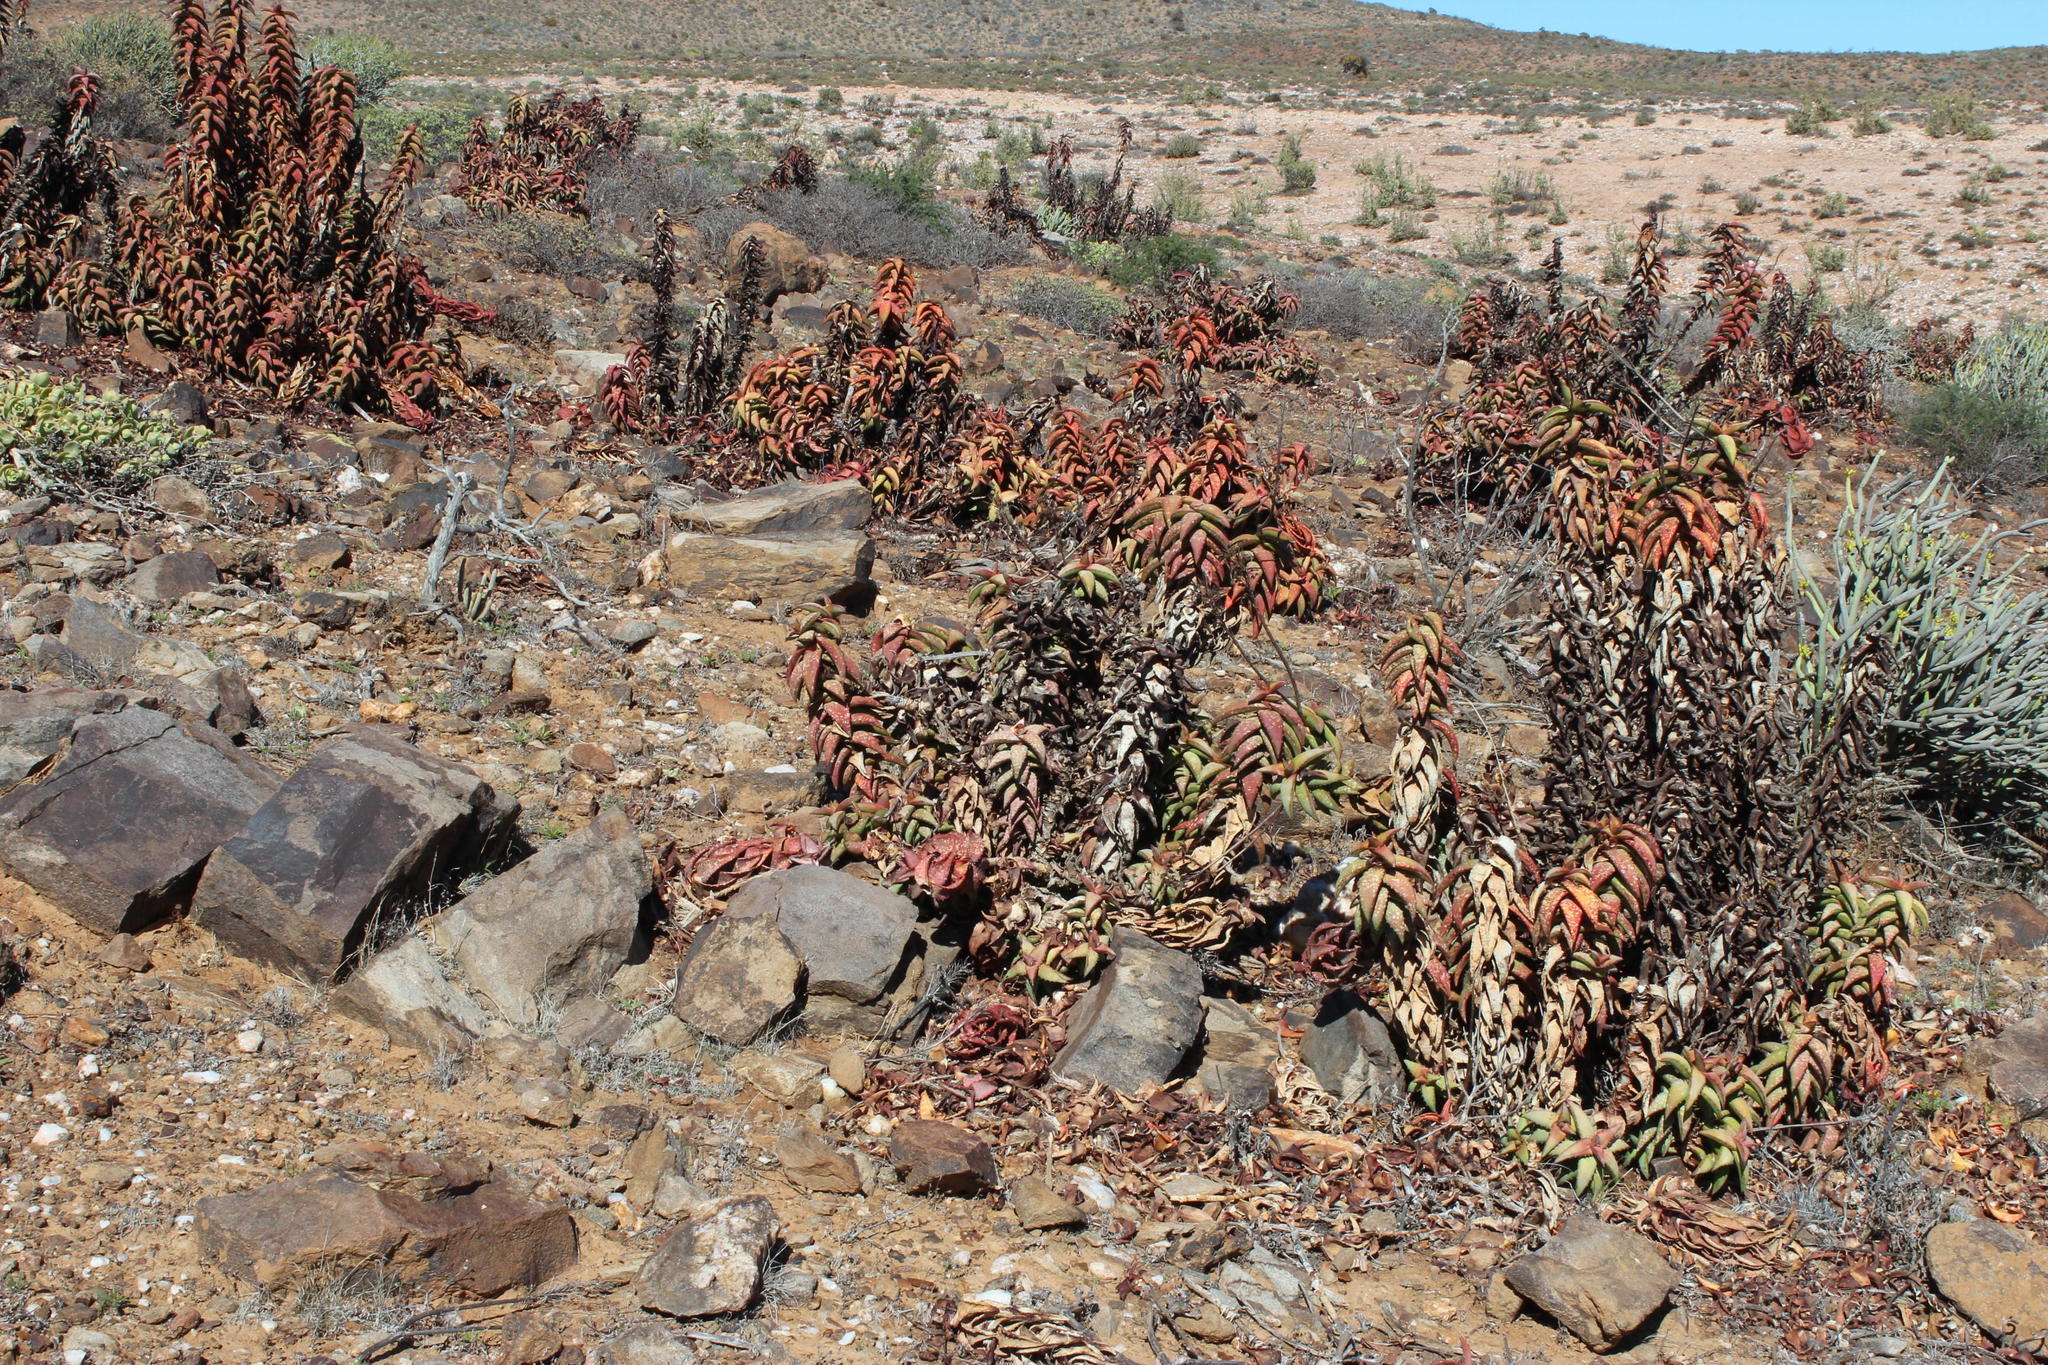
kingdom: Plantae
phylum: Tracheophyta
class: Liliopsida
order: Asparagales
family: Asphodelaceae
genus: Aloe
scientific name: Aloe pearsonii
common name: Pearson's aloe
